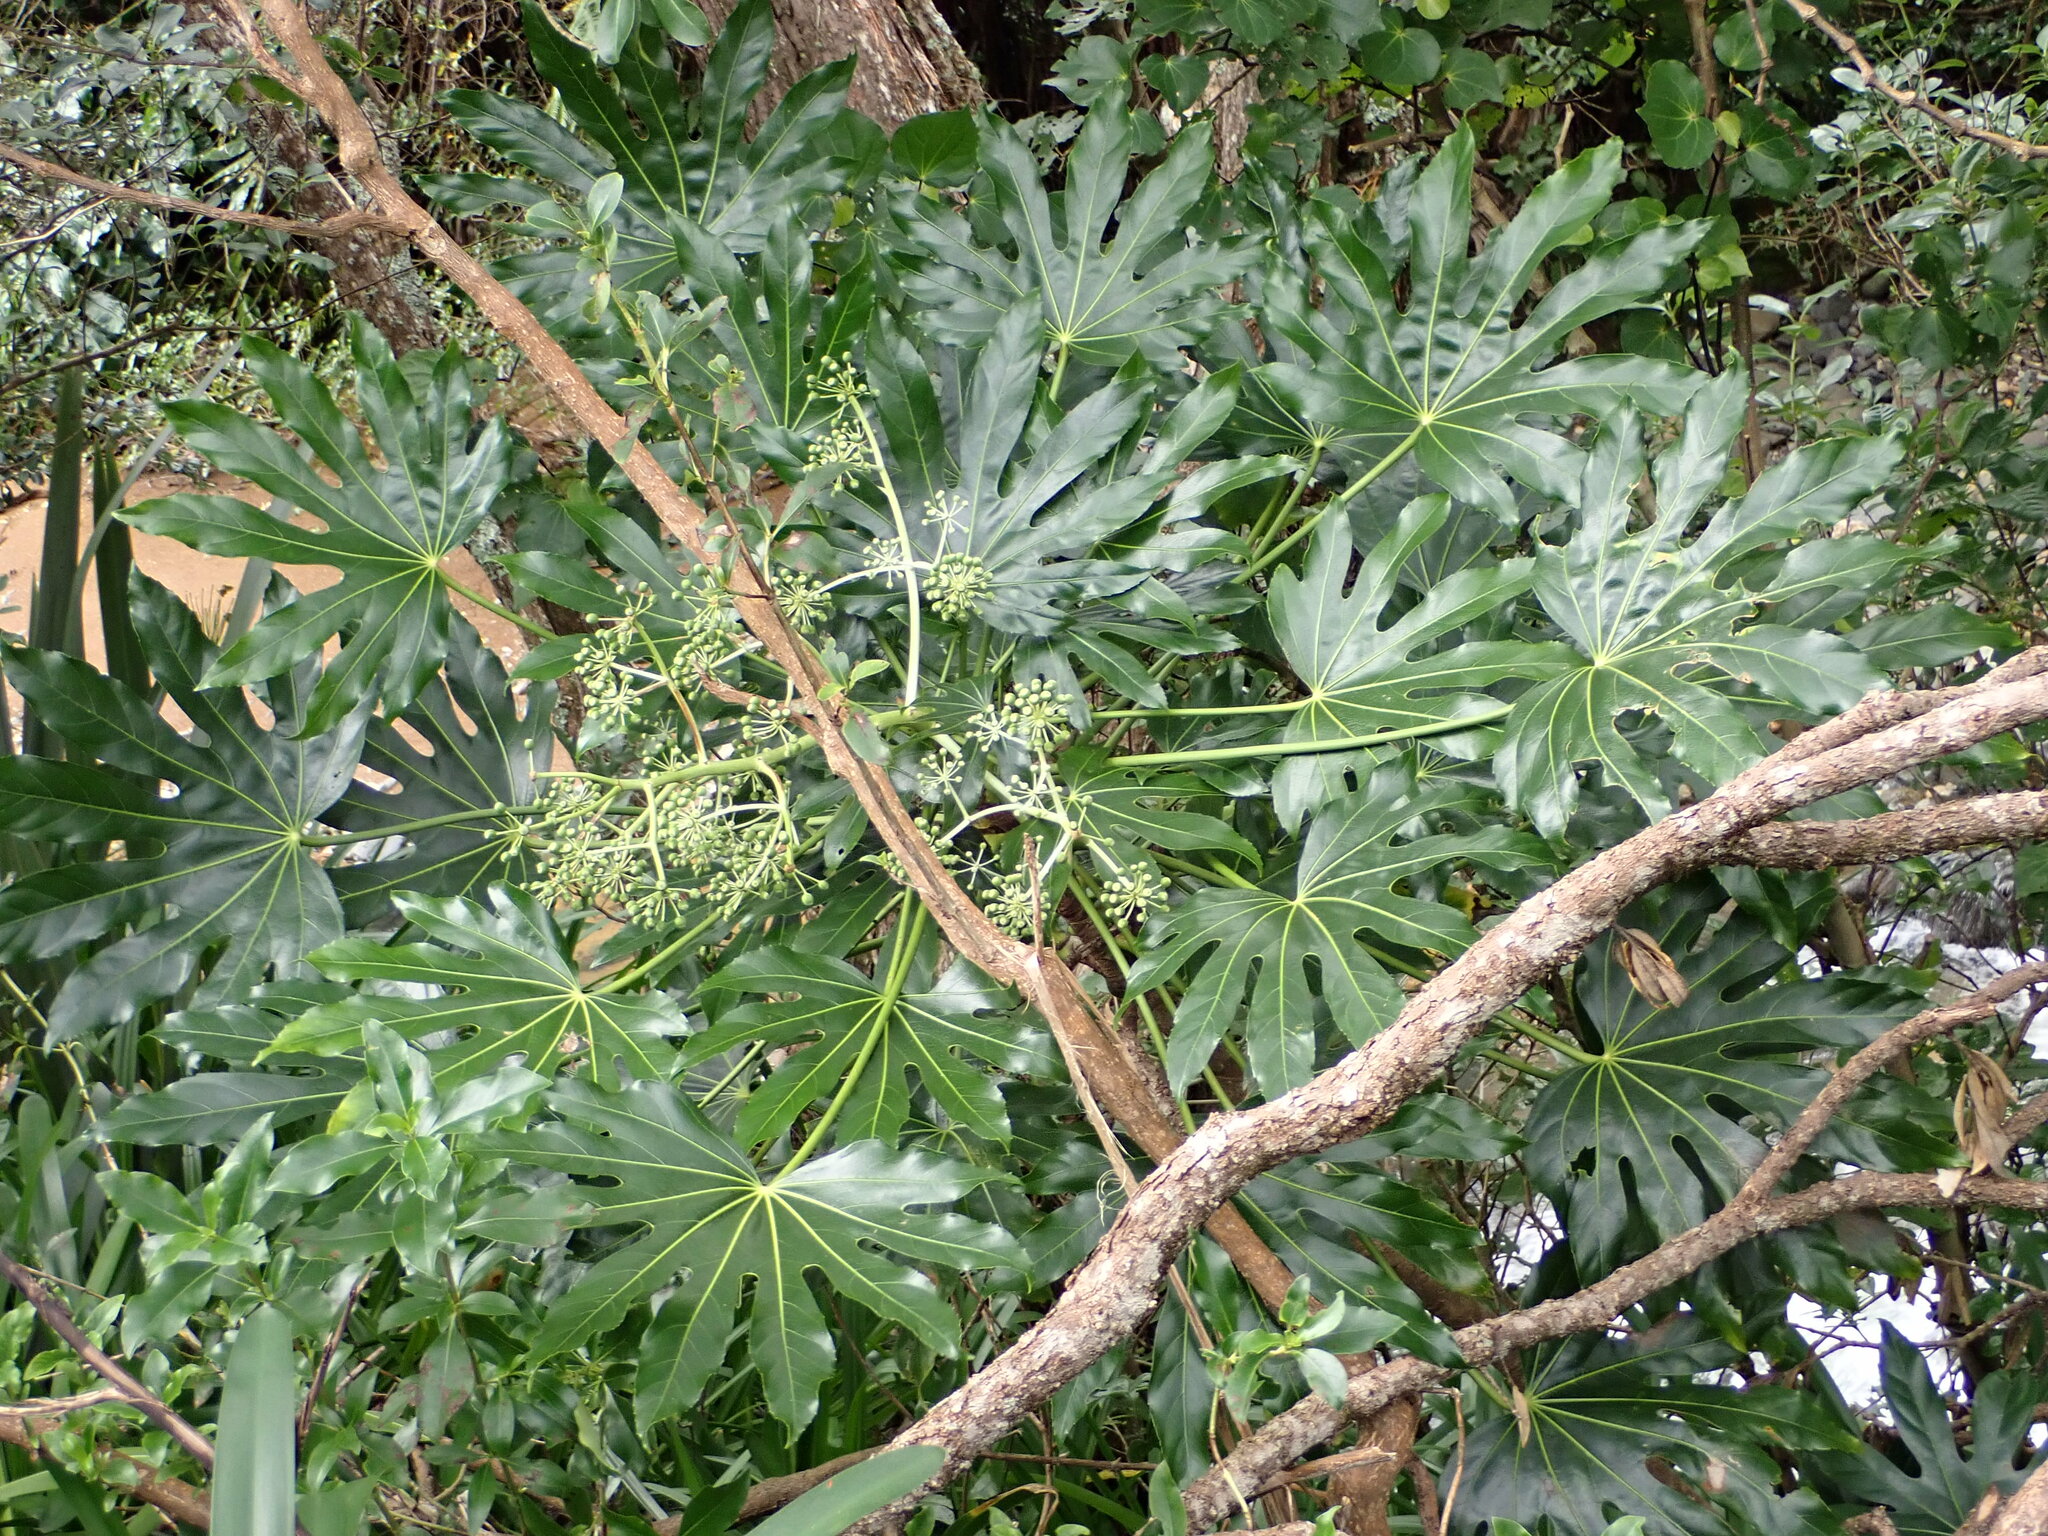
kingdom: Plantae
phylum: Tracheophyta
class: Magnoliopsida
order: Apiales
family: Araliaceae
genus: Fatsia
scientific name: Fatsia japonica
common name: Fatsia
